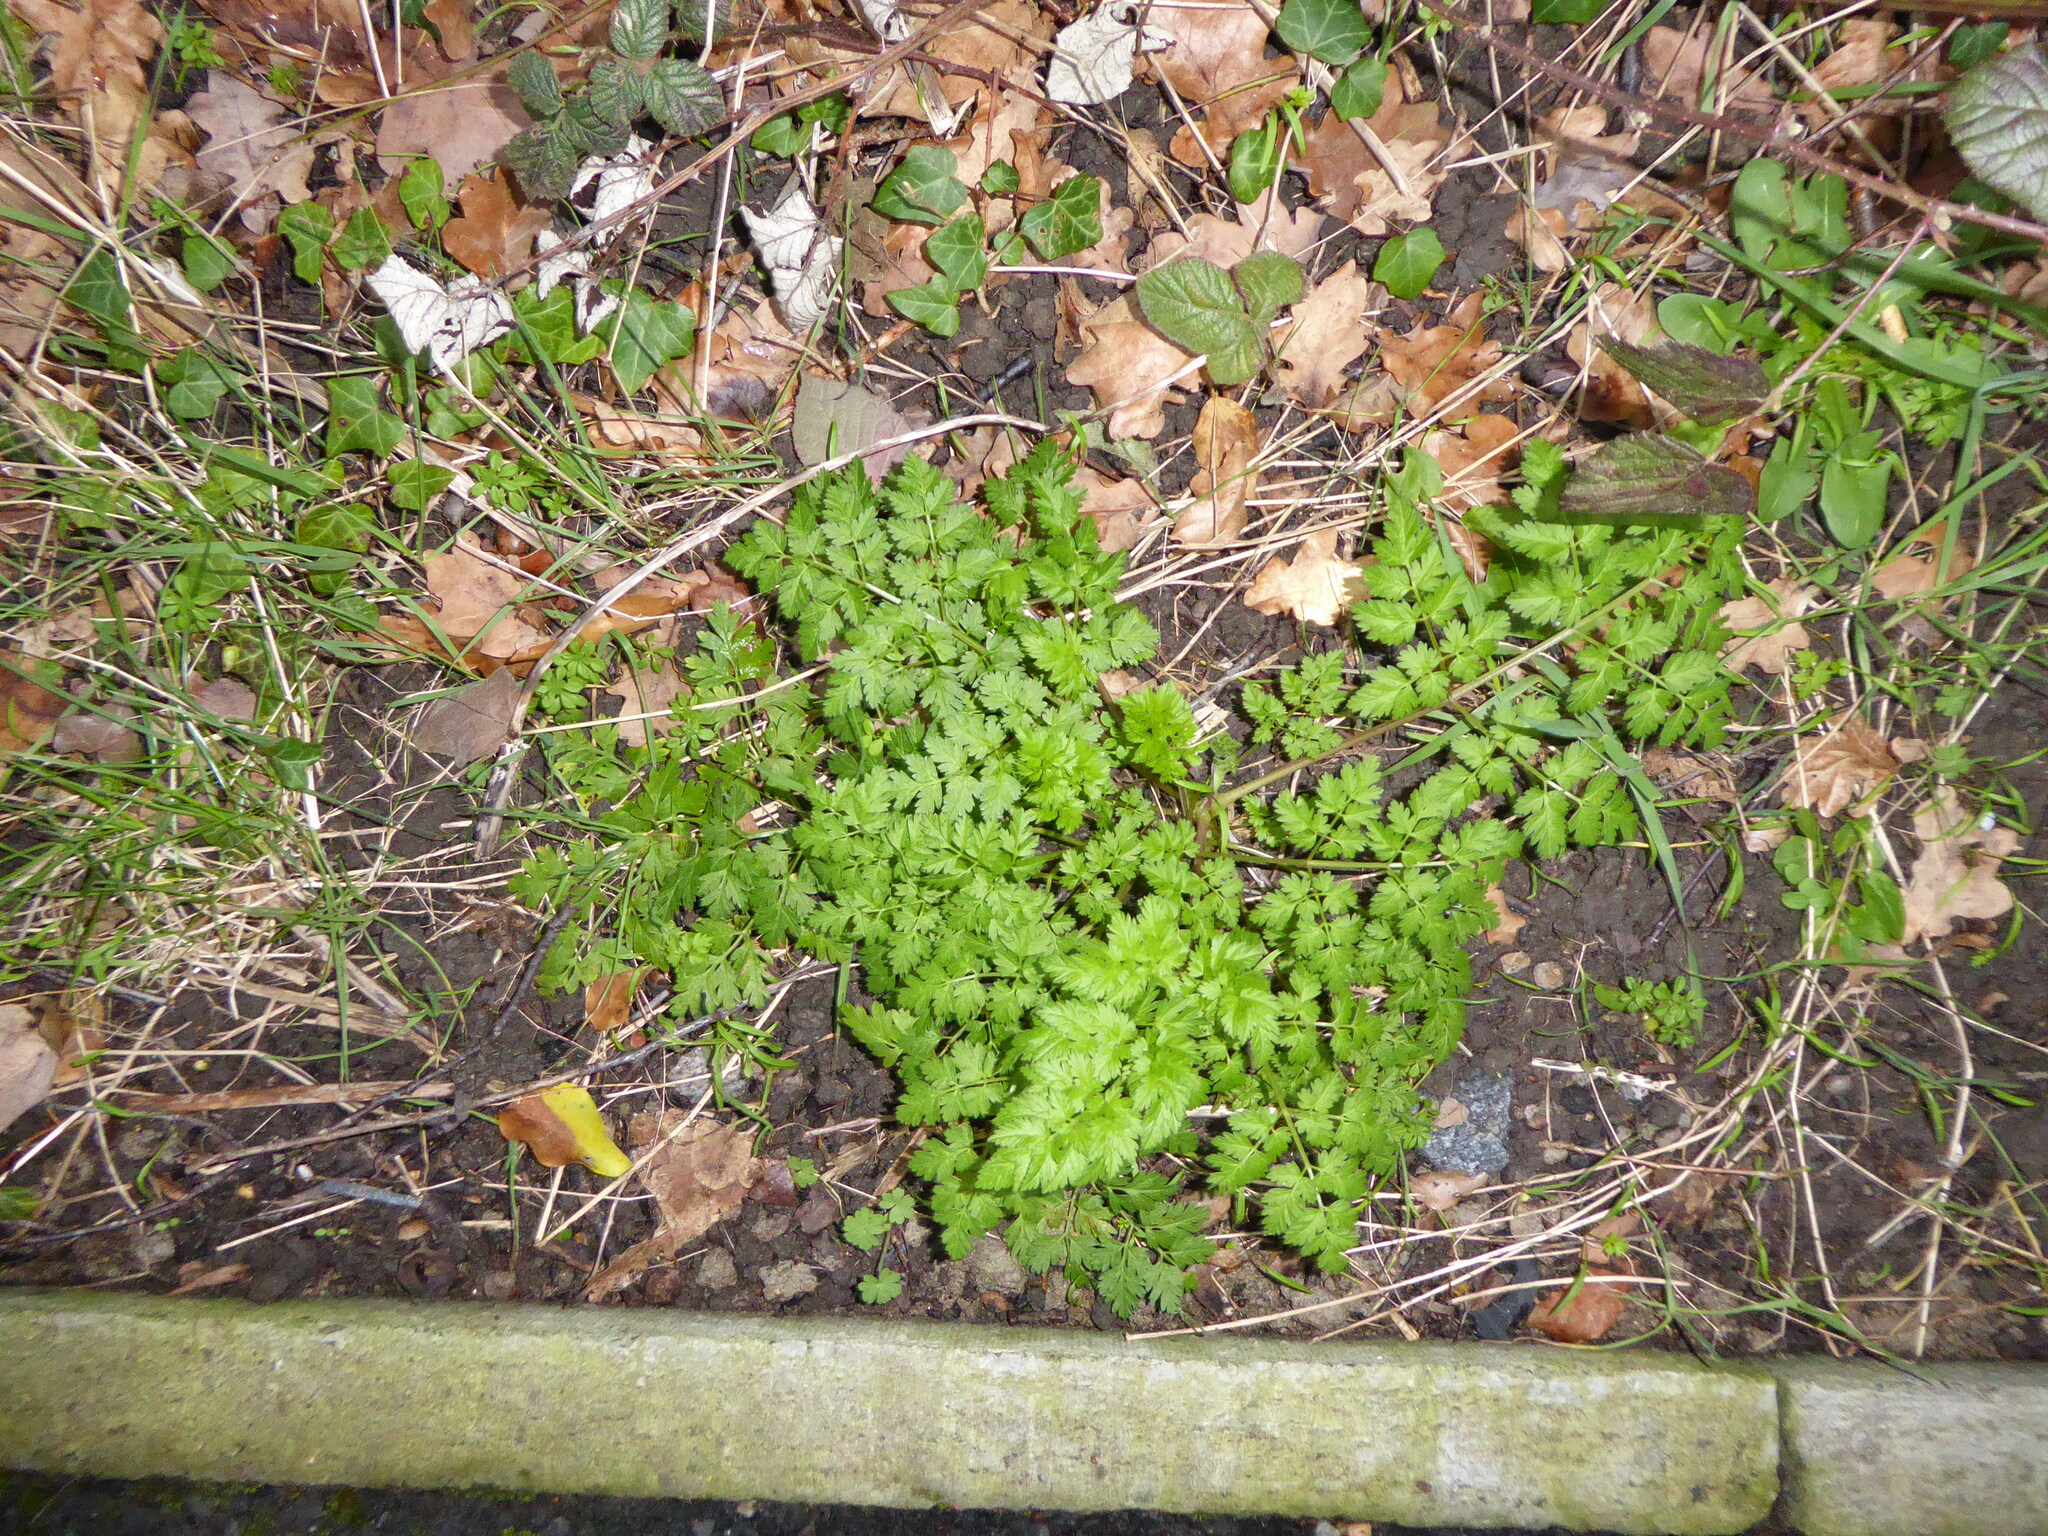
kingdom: Plantae
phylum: Tracheophyta
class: Magnoliopsida
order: Apiales
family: Apiaceae
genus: Anthriscus
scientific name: Anthriscus sylvestris
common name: Cow parsley
